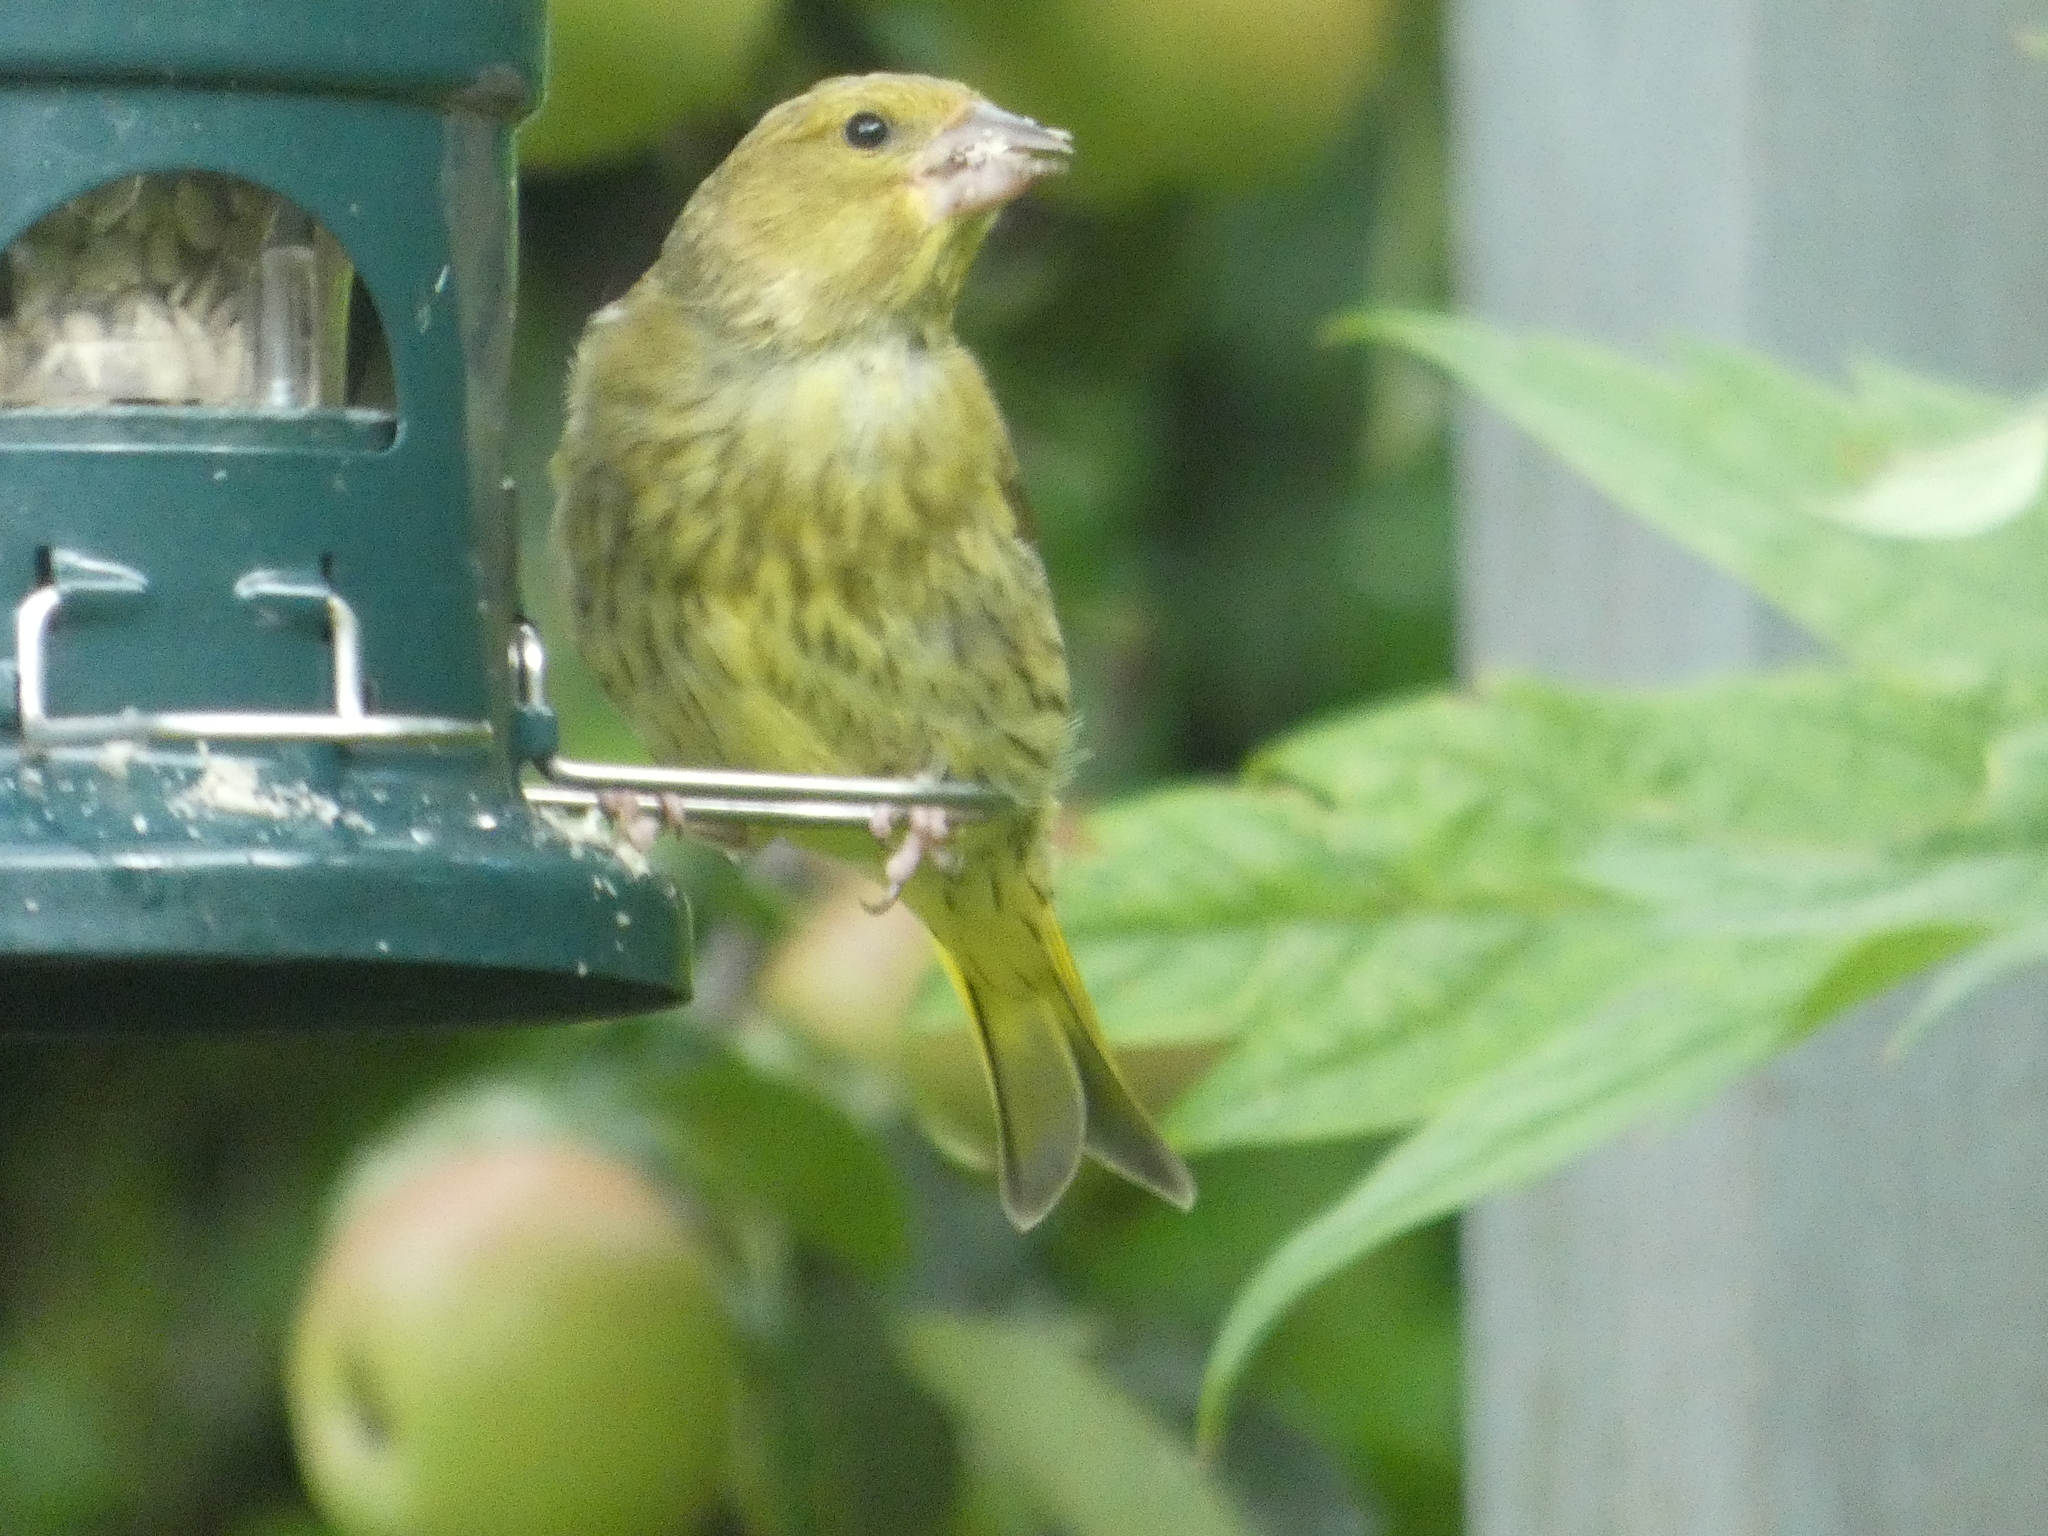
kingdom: Plantae
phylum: Tracheophyta
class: Liliopsida
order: Poales
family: Poaceae
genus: Chloris
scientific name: Chloris chloris
